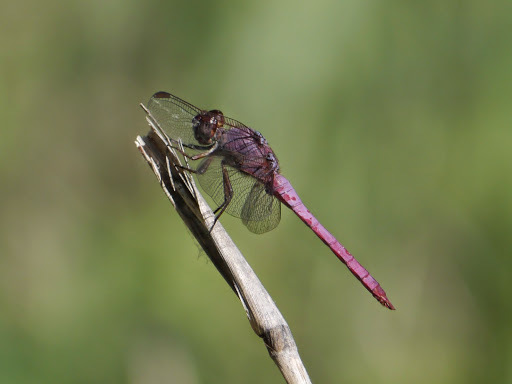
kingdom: Animalia
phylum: Arthropoda
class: Insecta
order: Odonata
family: Libellulidae
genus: Orthemis
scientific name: Orthemis ferruginea
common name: Roseate skimmer
